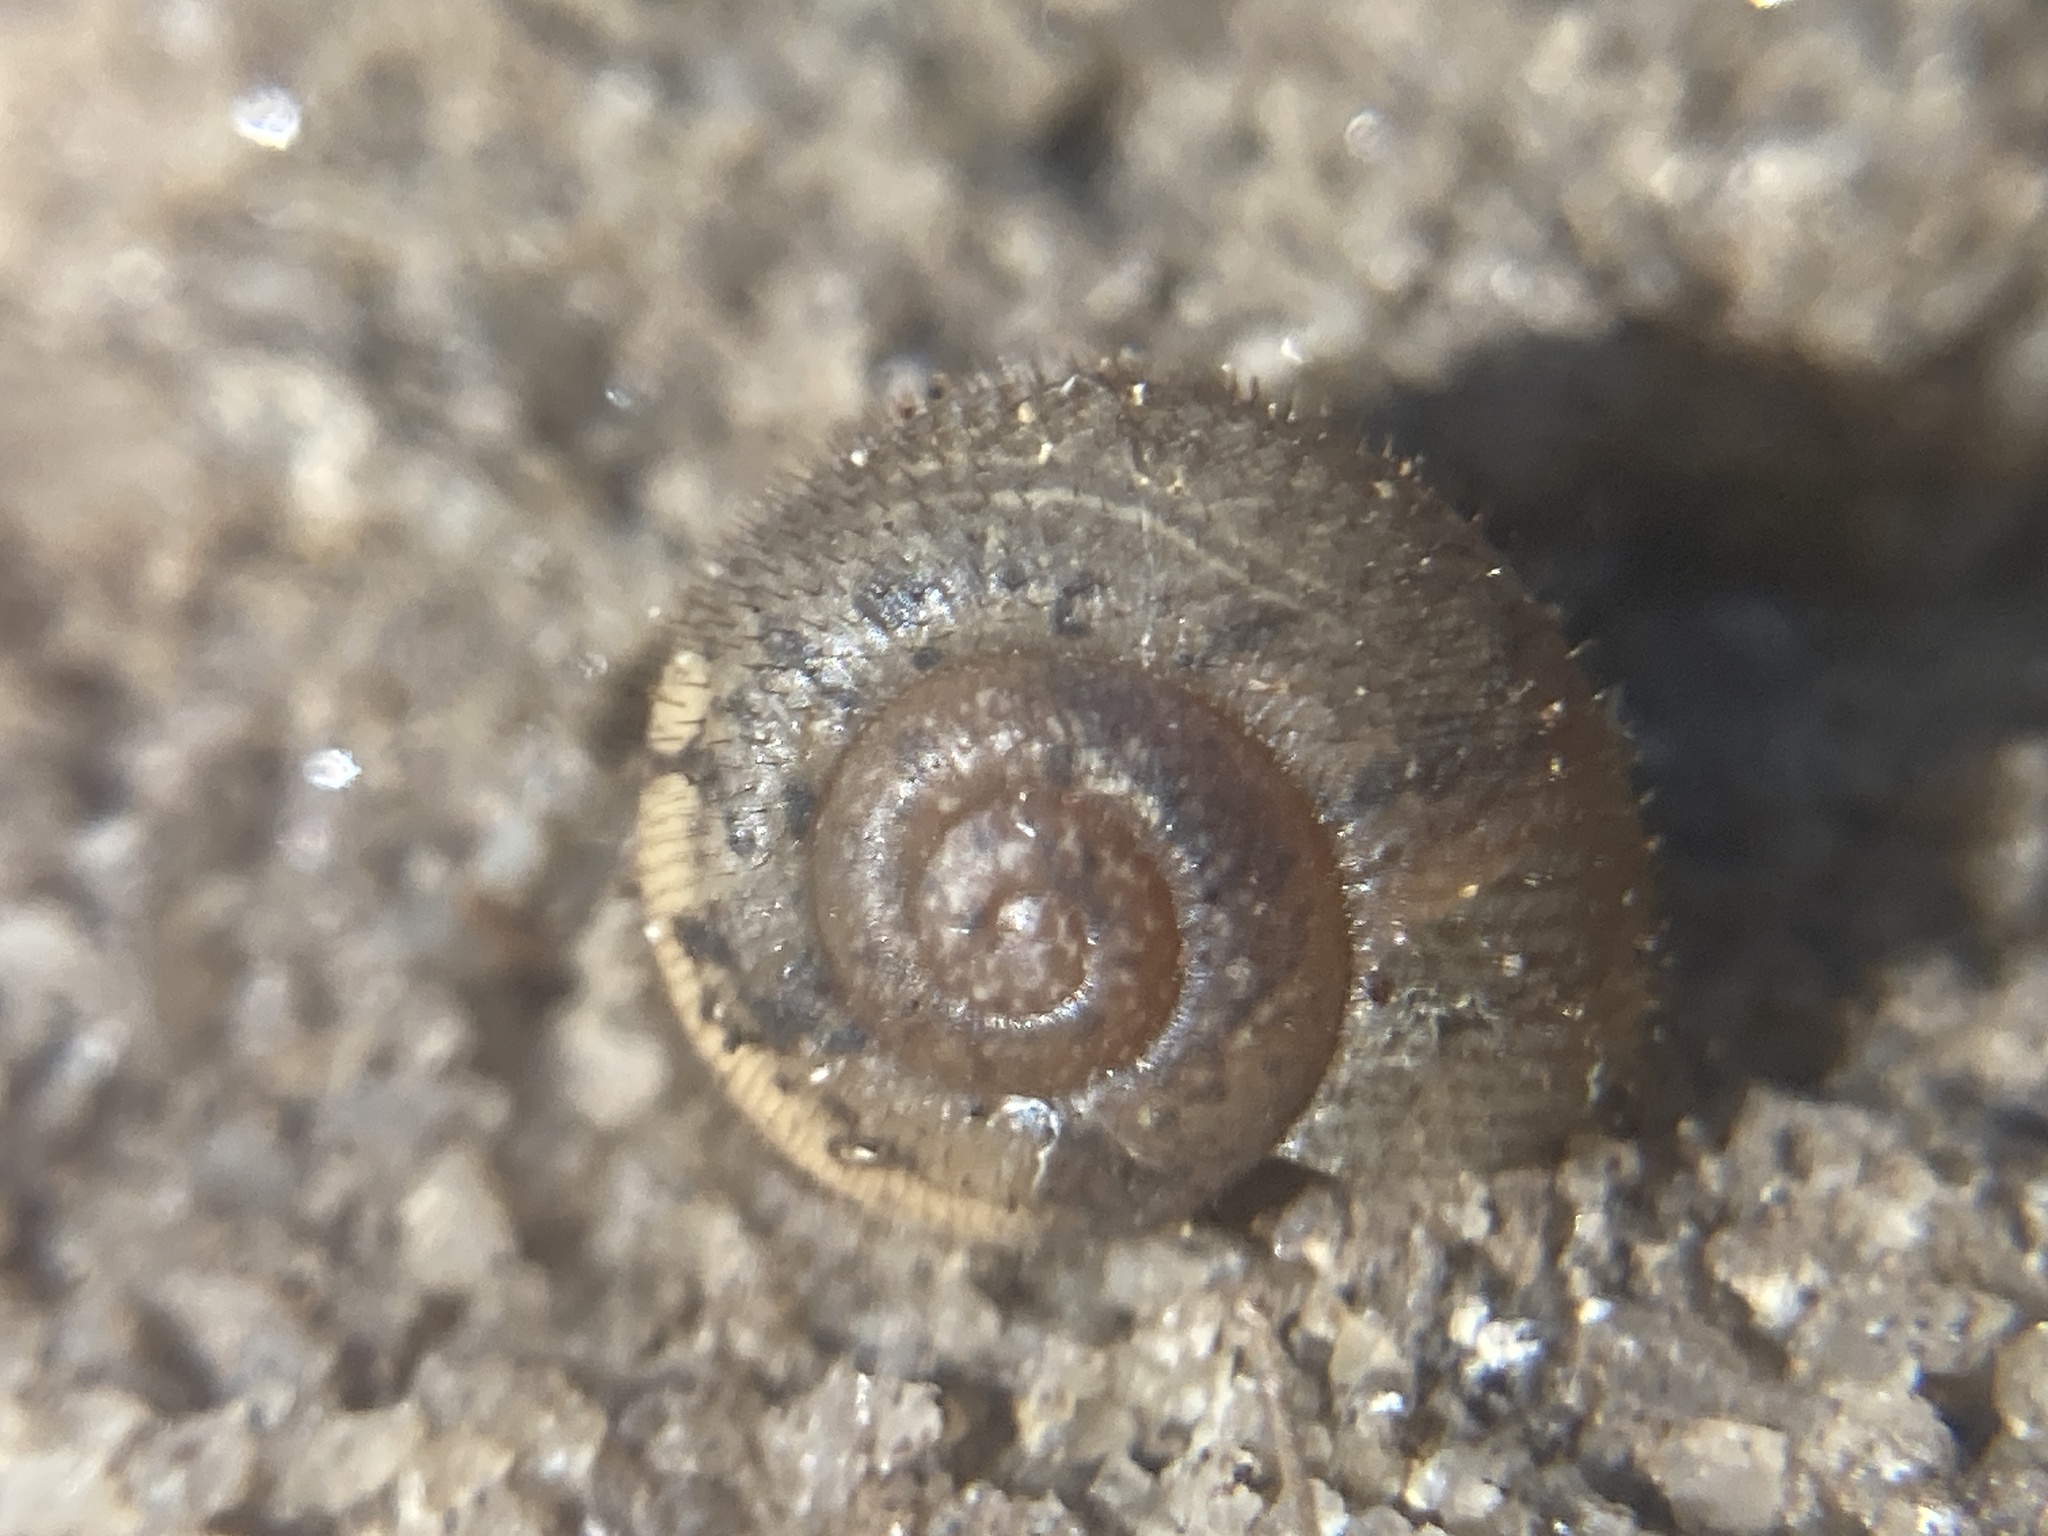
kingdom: Animalia
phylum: Mollusca
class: Gastropoda
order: Stylommatophora
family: Camaenidae
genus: Austrochloritis
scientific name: Austrochloritis metuenda
